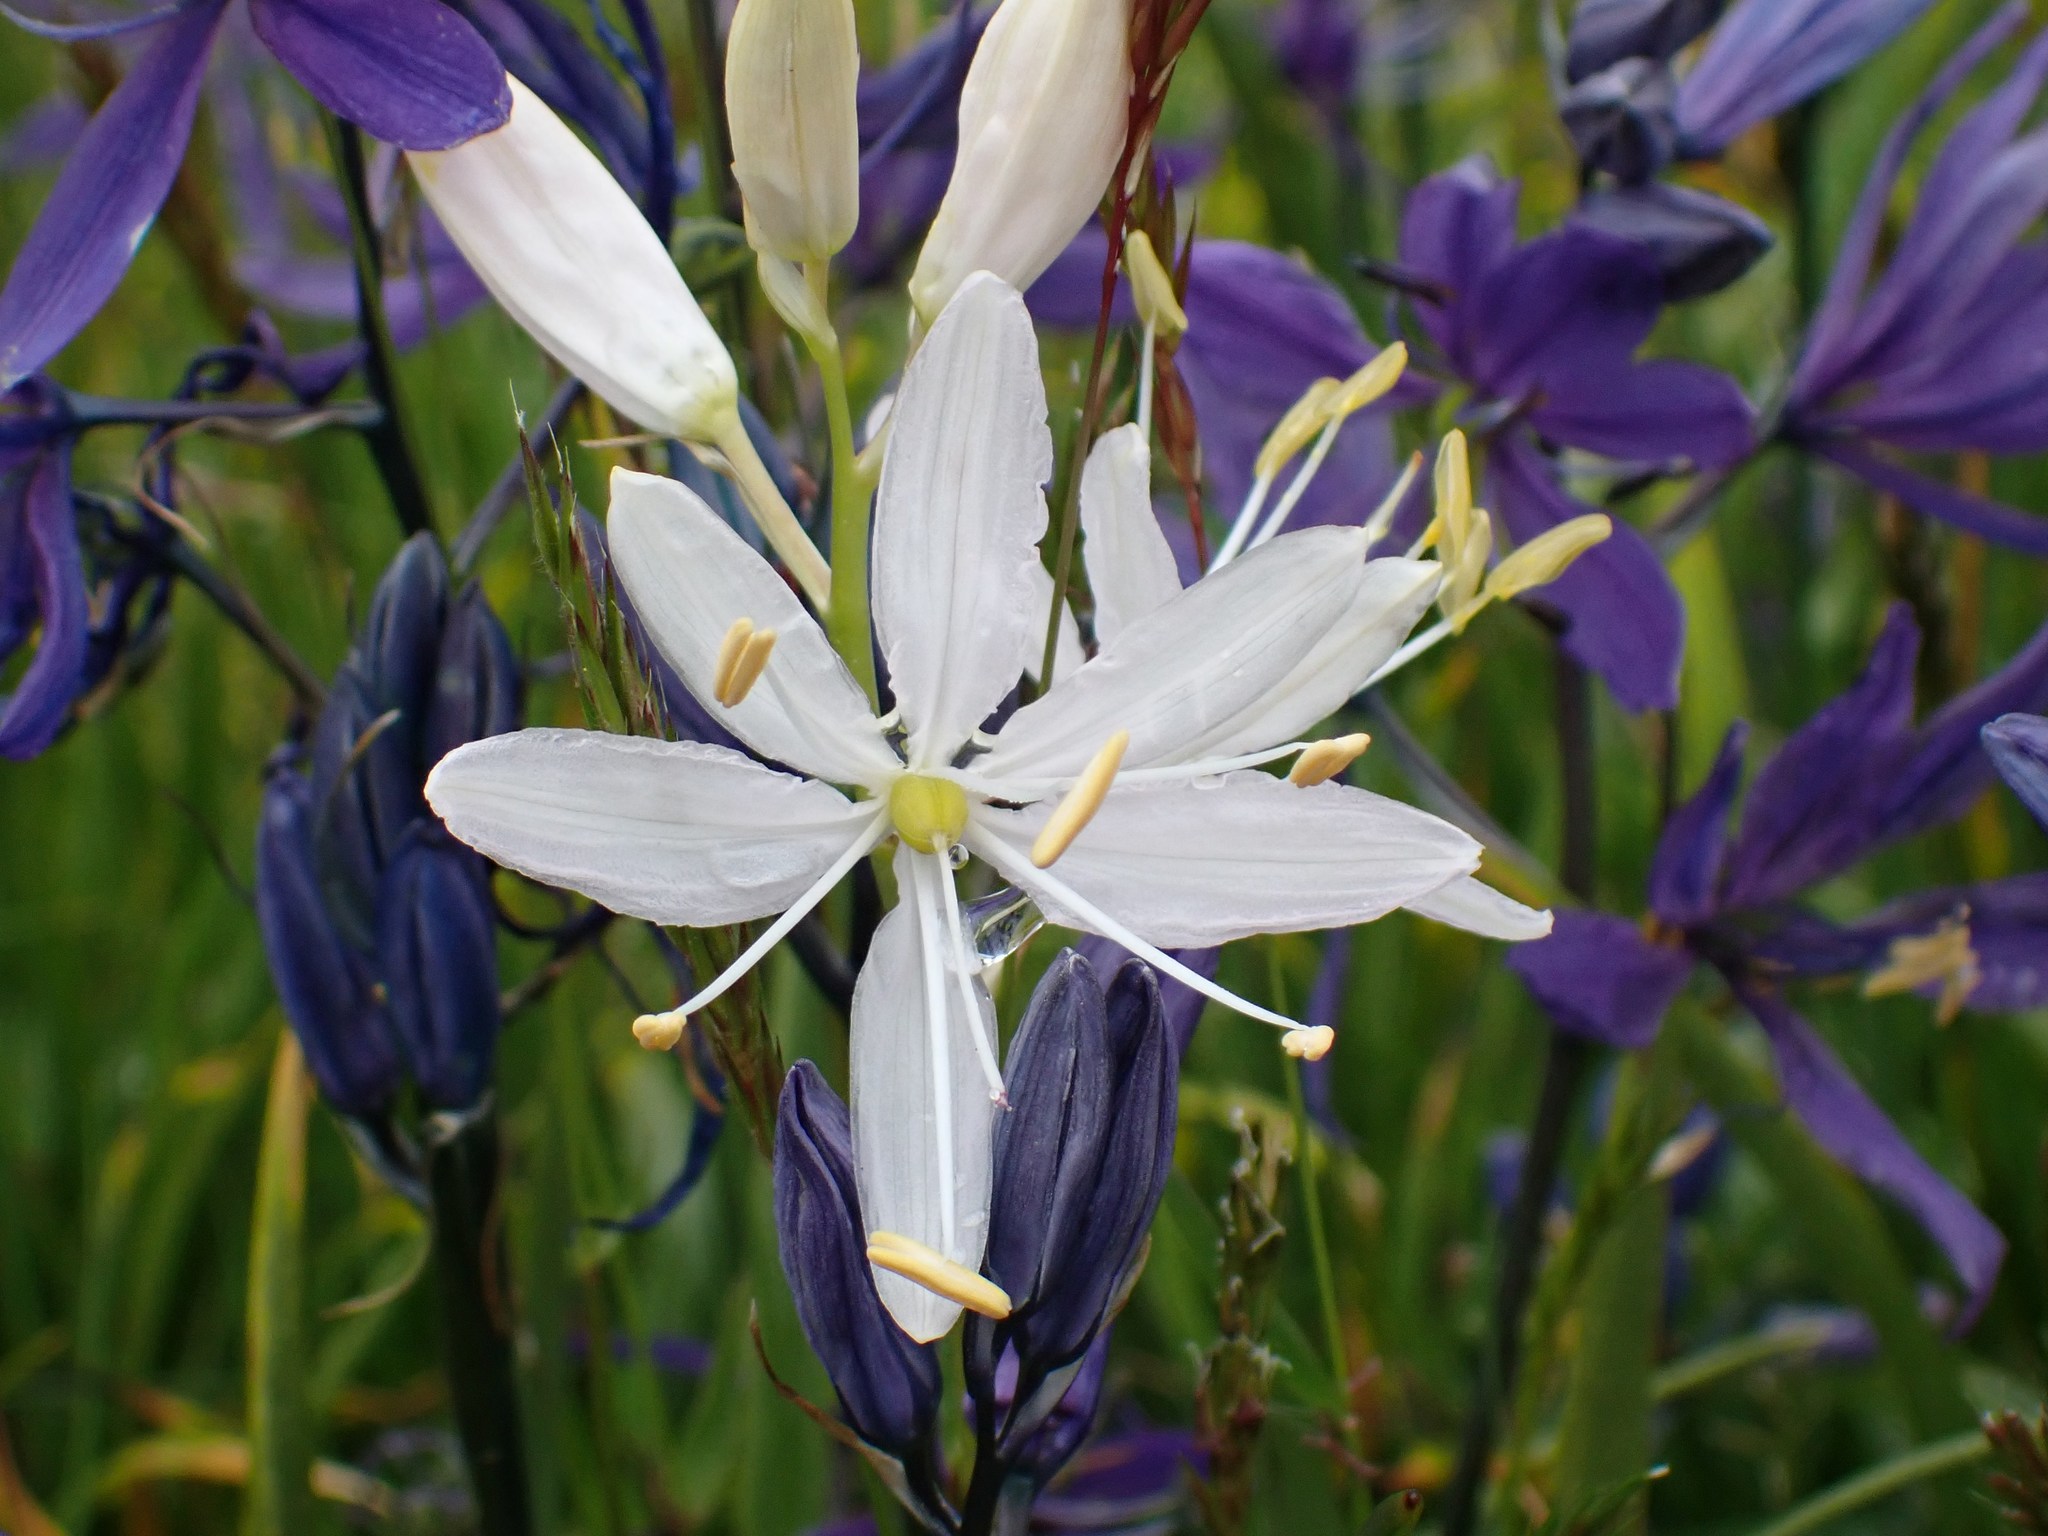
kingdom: Plantae
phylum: Tracheophyta
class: Liliopsida
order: Asparagales
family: Asparagaceae
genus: Camassia
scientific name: Camassia quamash
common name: Common camas
